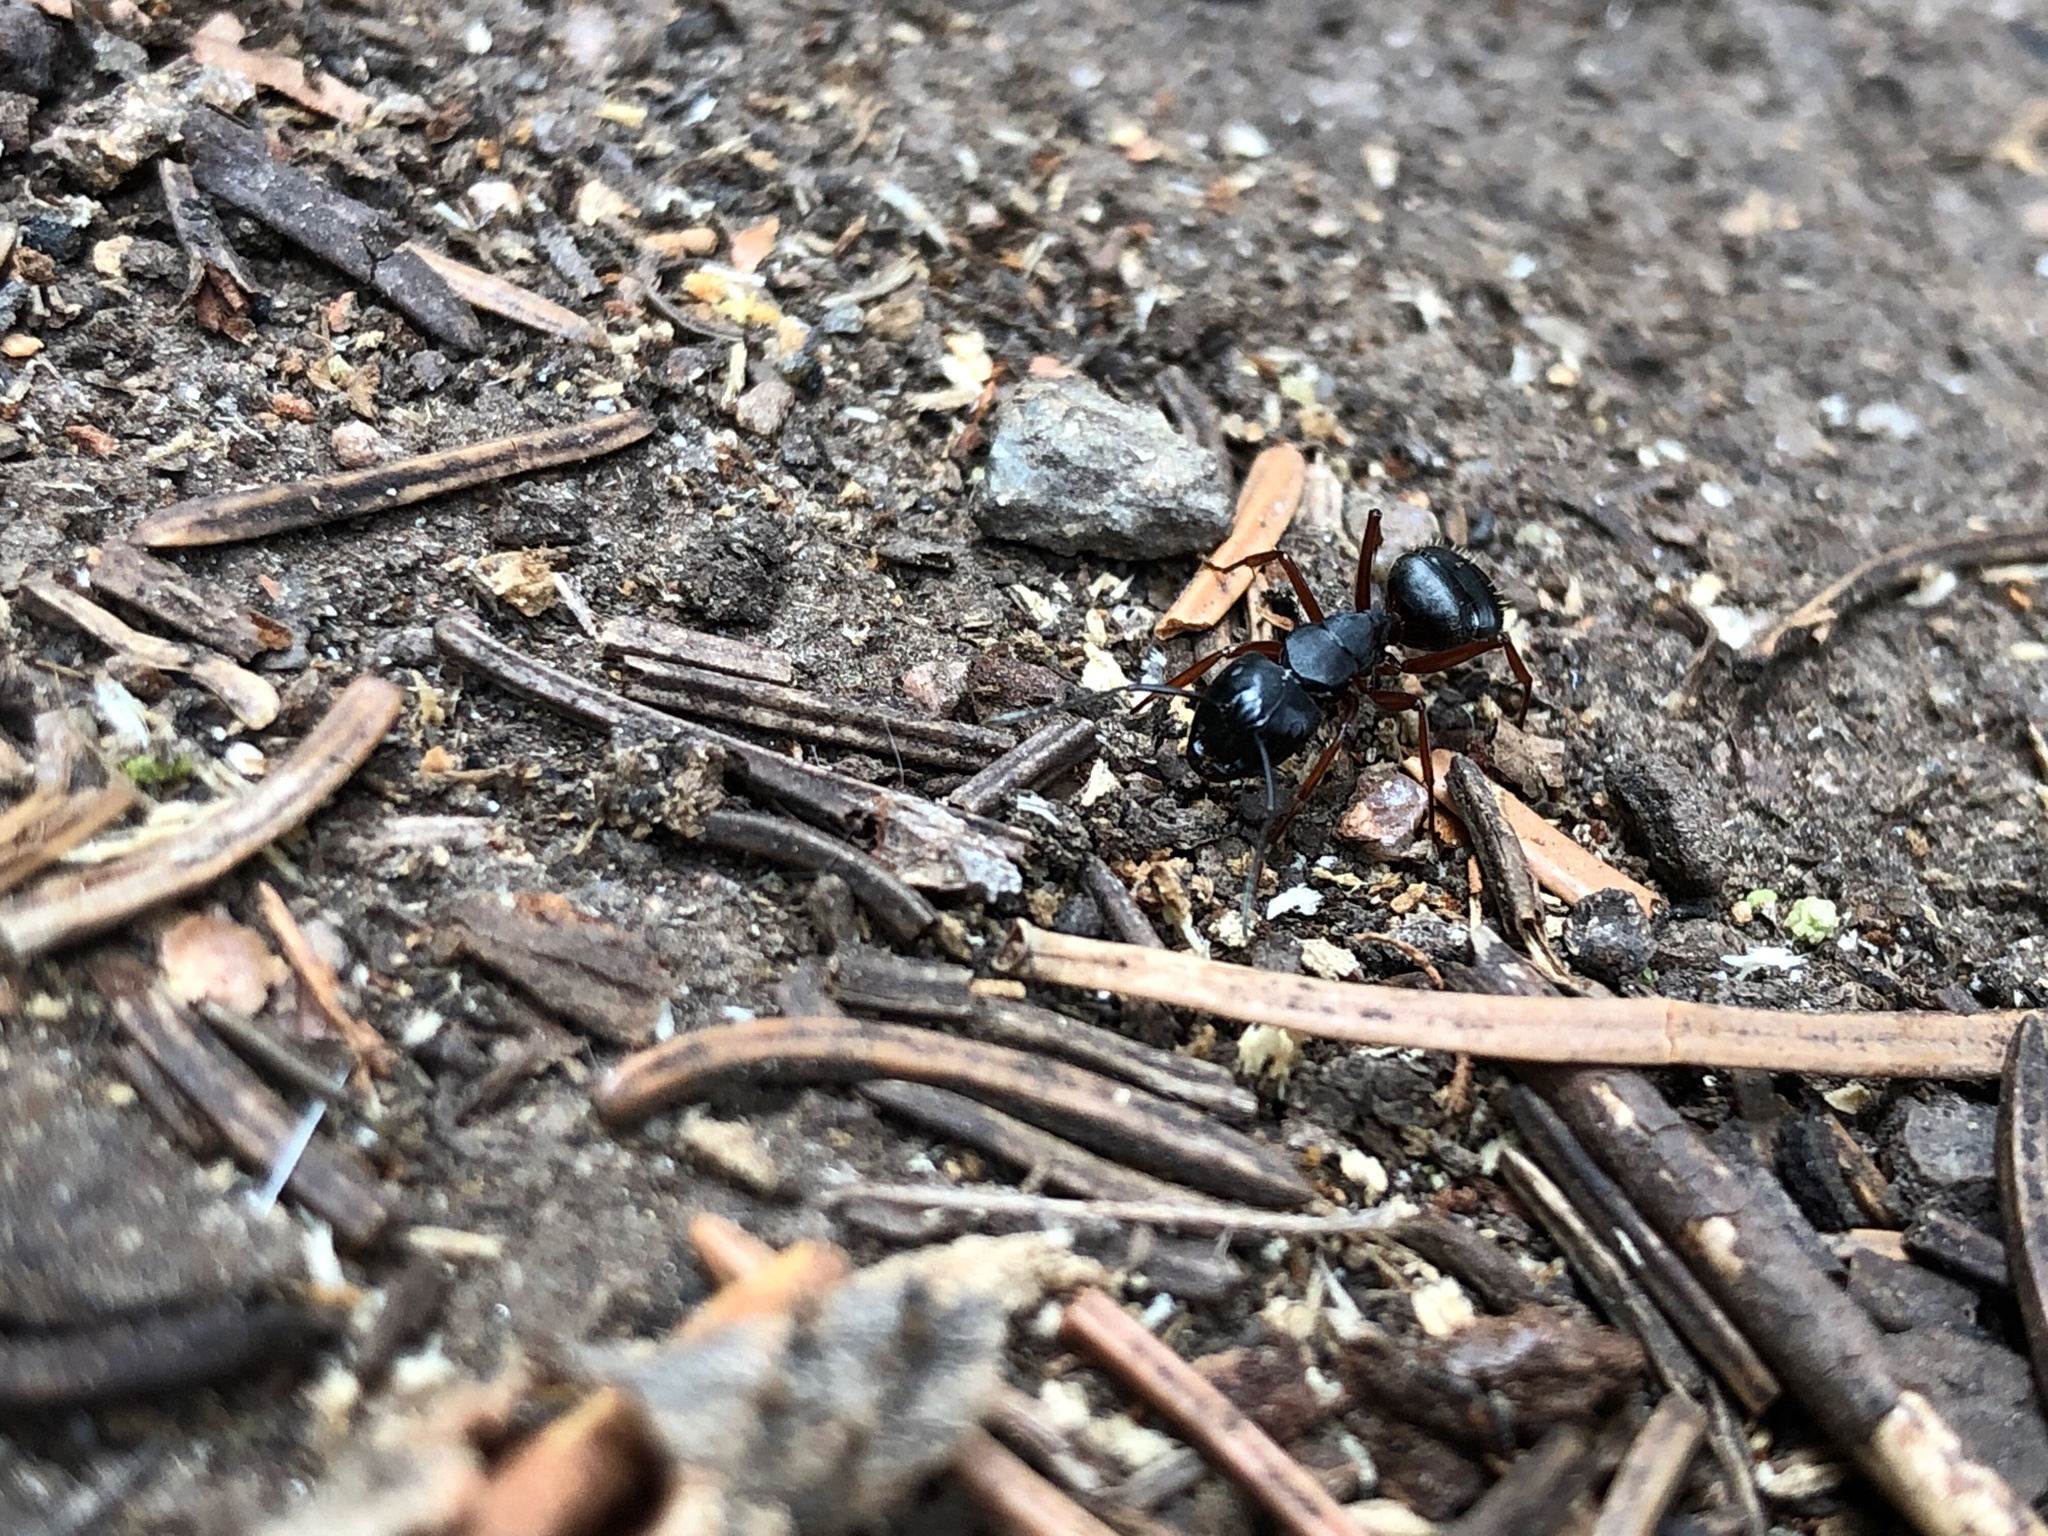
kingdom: Animalia
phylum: Arthropoda
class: Insecta
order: Hymenoptera
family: Formicidae
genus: Camponotus
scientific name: Camponotus modoc
